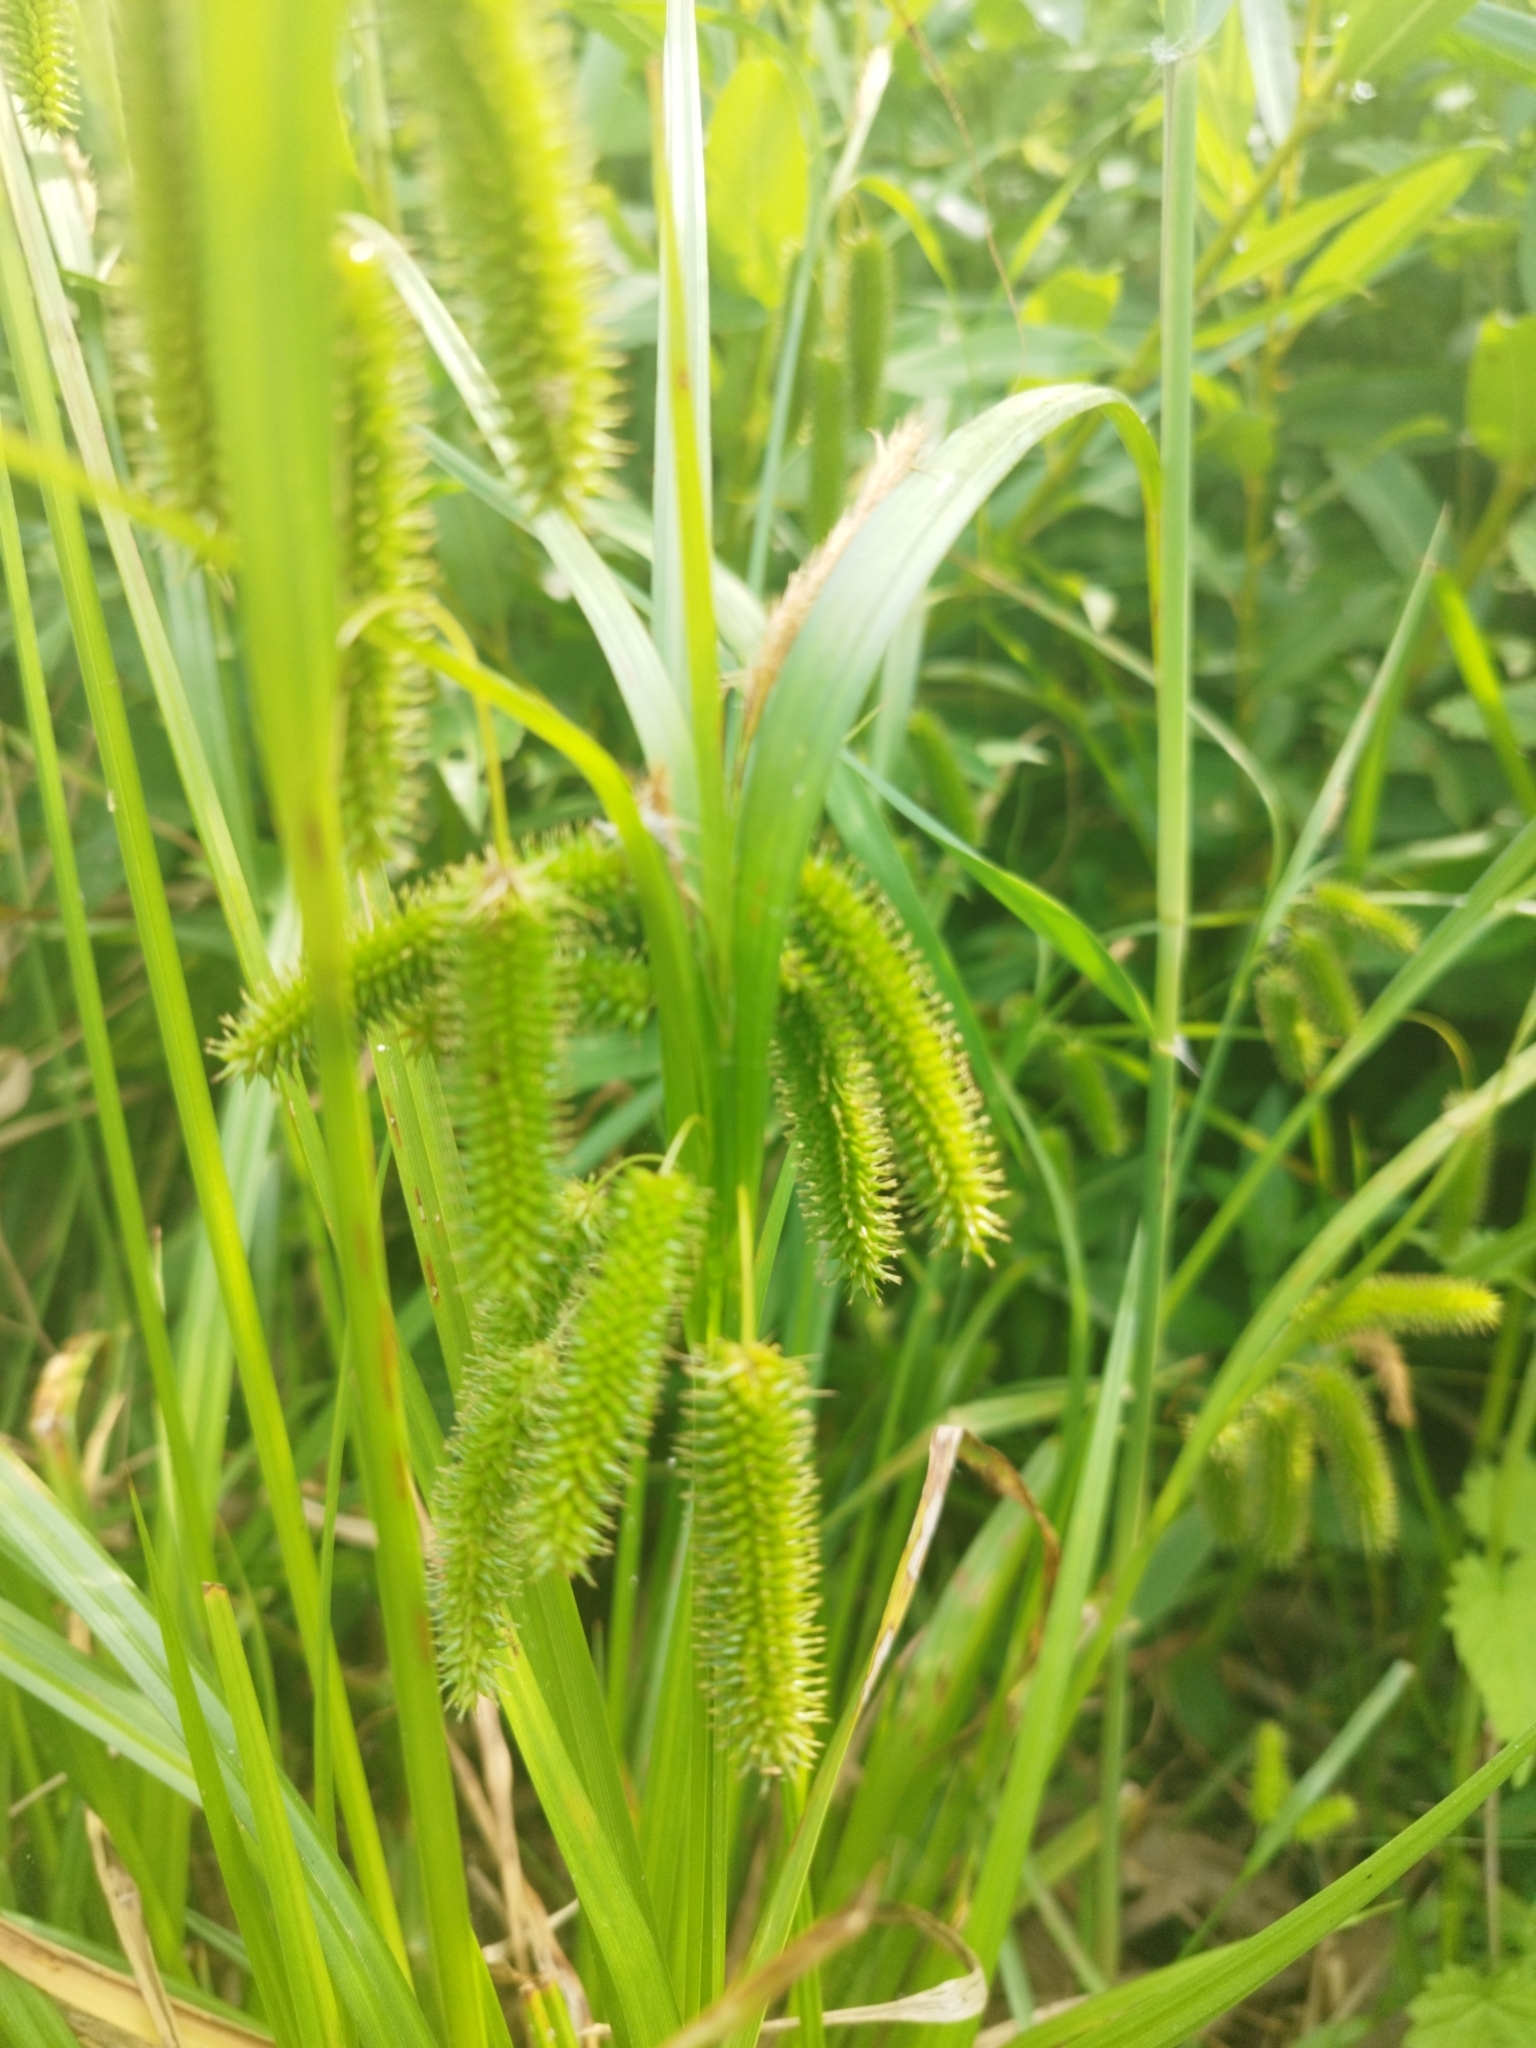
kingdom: Plantae
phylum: Tracheophyta
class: Liliopsida
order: Poales
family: Cyperaceae
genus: Carex
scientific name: Carex pseudocyperus
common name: Cyperus sedge
